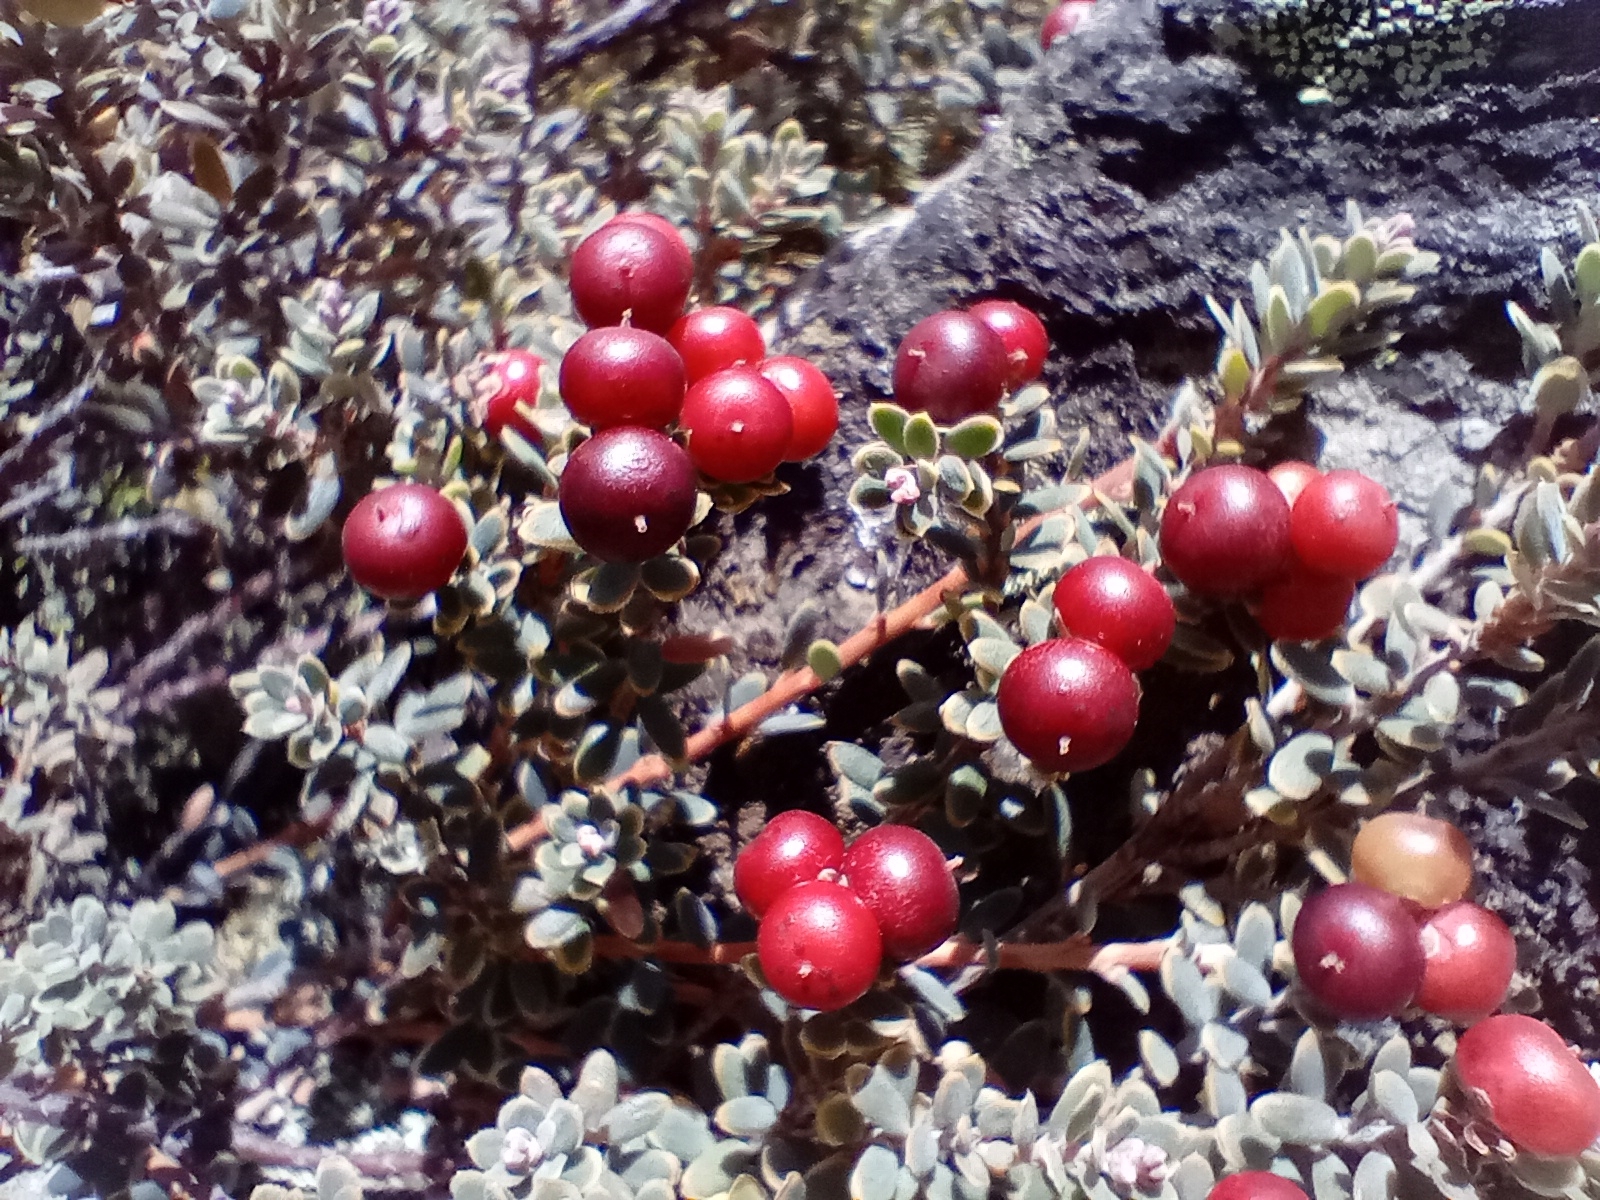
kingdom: Plantae
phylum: Tracheophyta
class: Magnoliopsida
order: Ericales
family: Ericaceae
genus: Acrothamnus
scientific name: Acrothamnus colensoi
